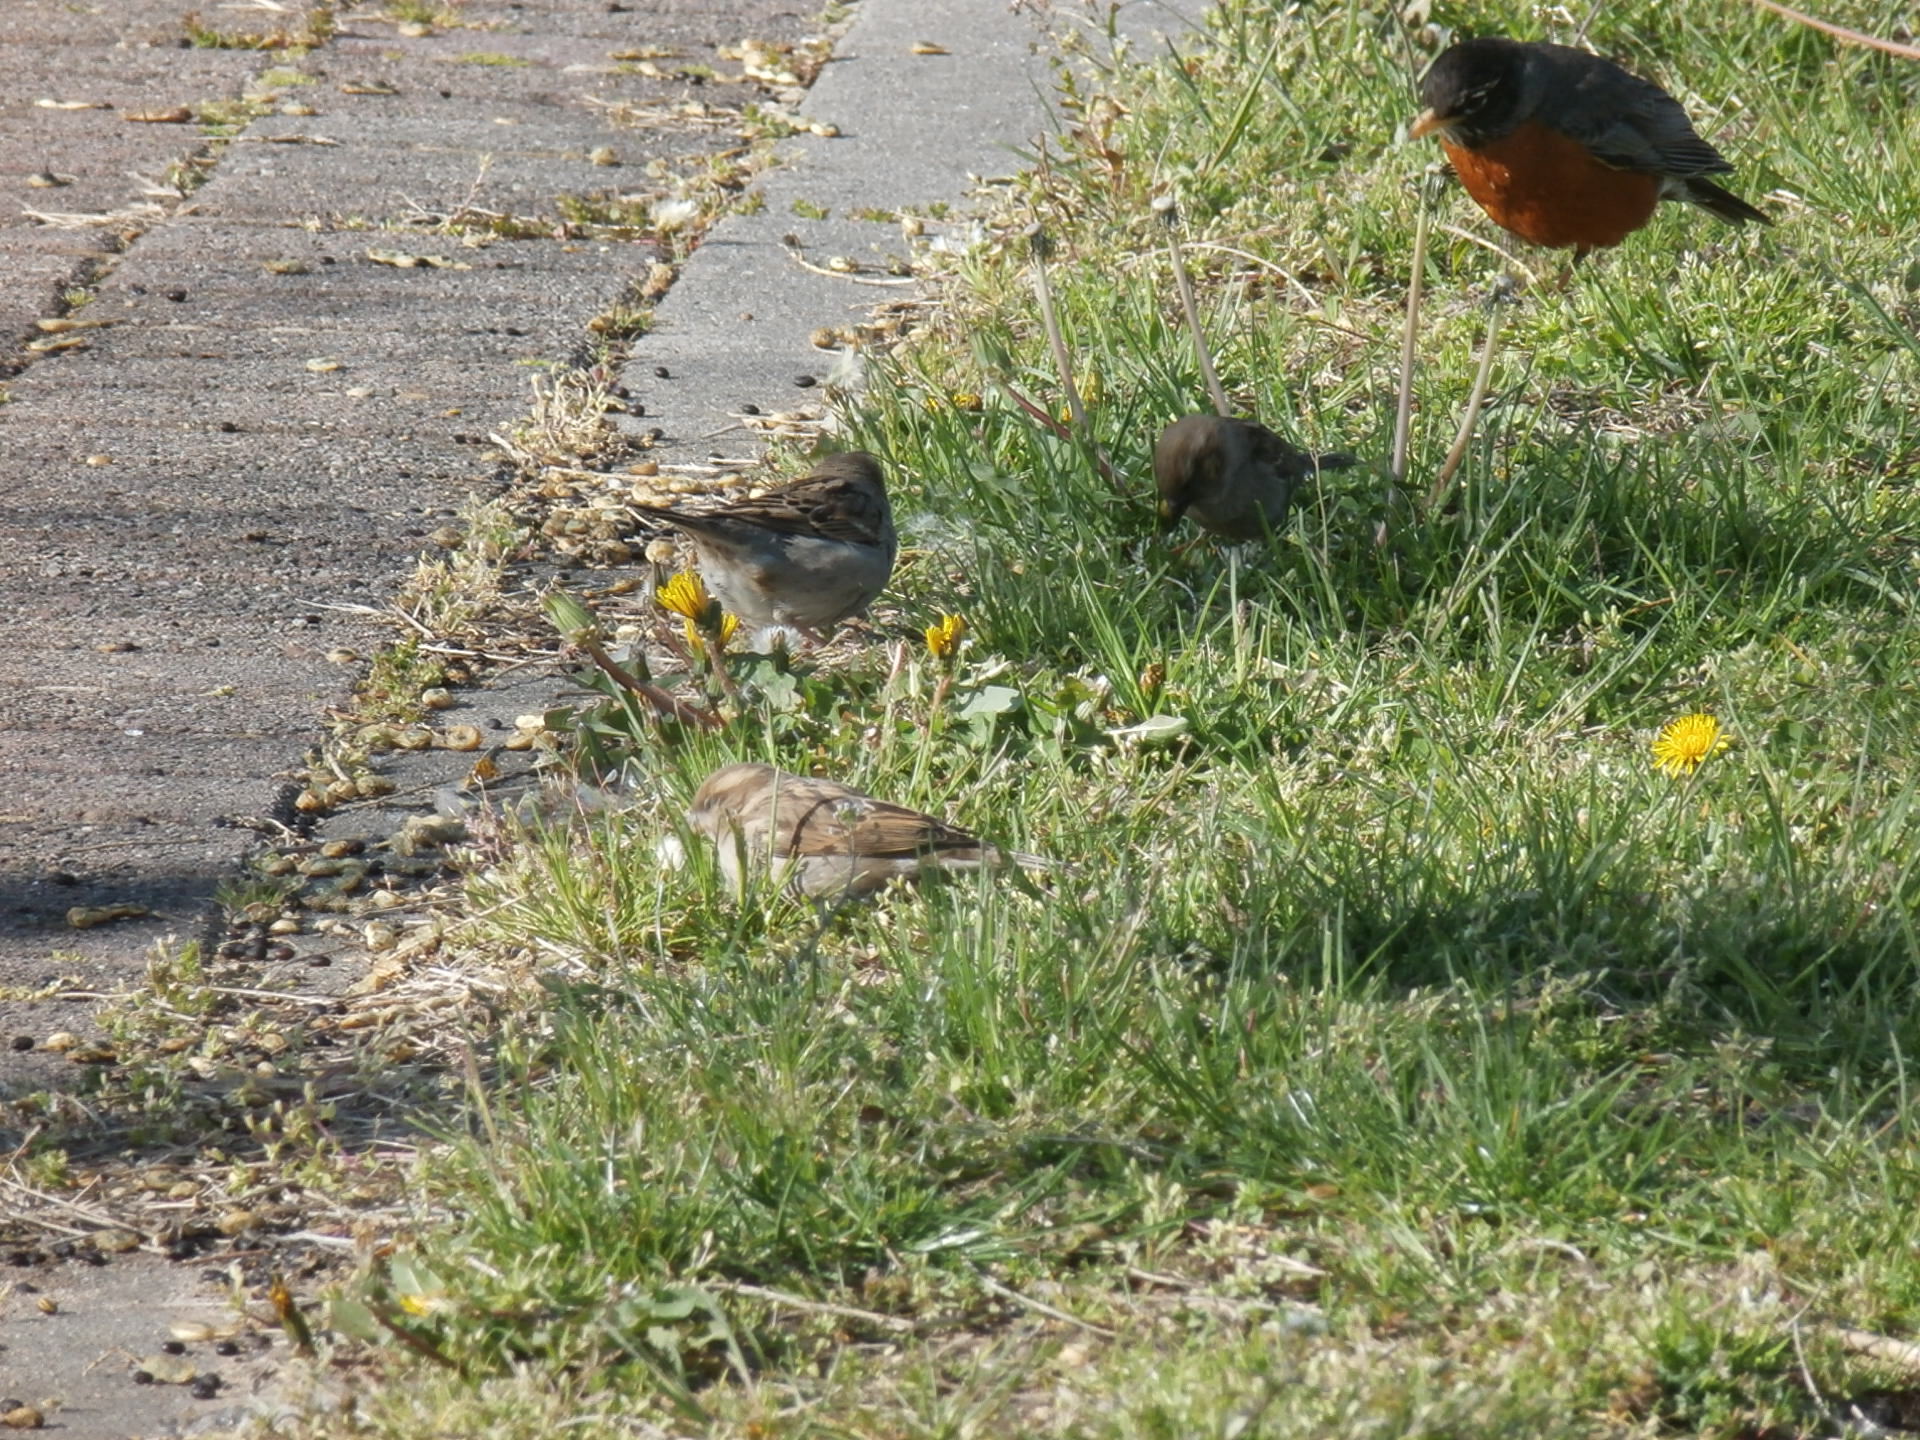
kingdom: Animalia
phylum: Chordata
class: Aves
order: Passeriformes
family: Passeridae
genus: Passer
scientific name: Passer domesticus
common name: House sparrow
